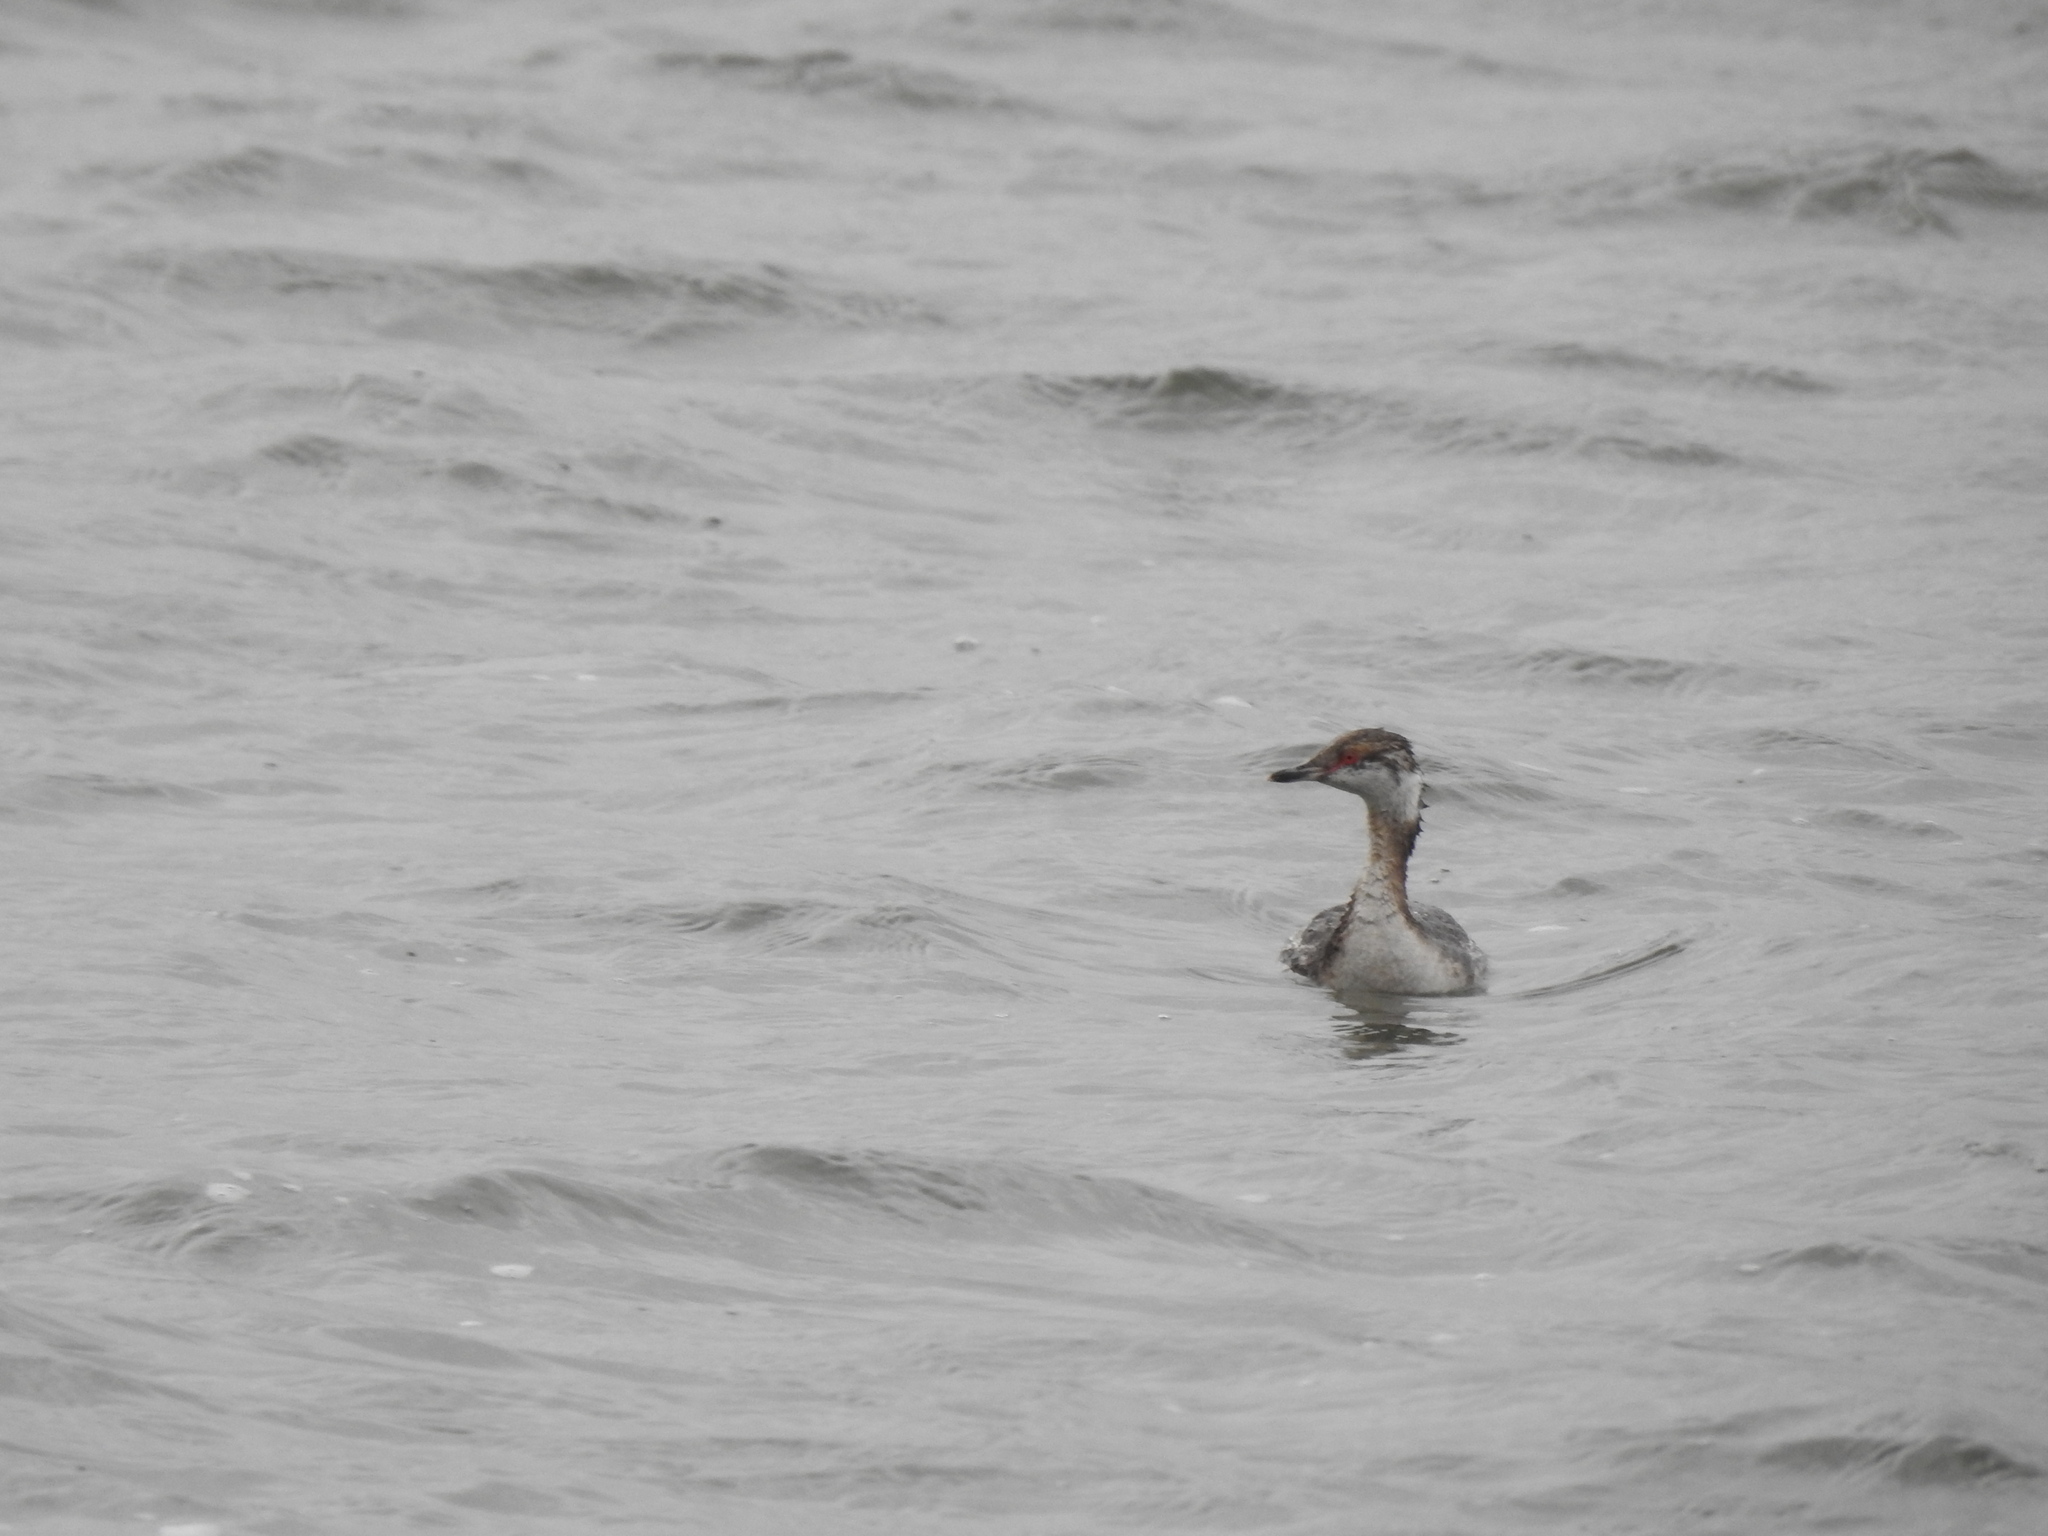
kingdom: Animalia
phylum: Chordata
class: Aves
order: Podicipediformes
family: Podicipedidae
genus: Podiceps
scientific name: Podiceps auritus
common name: Horned grebe
